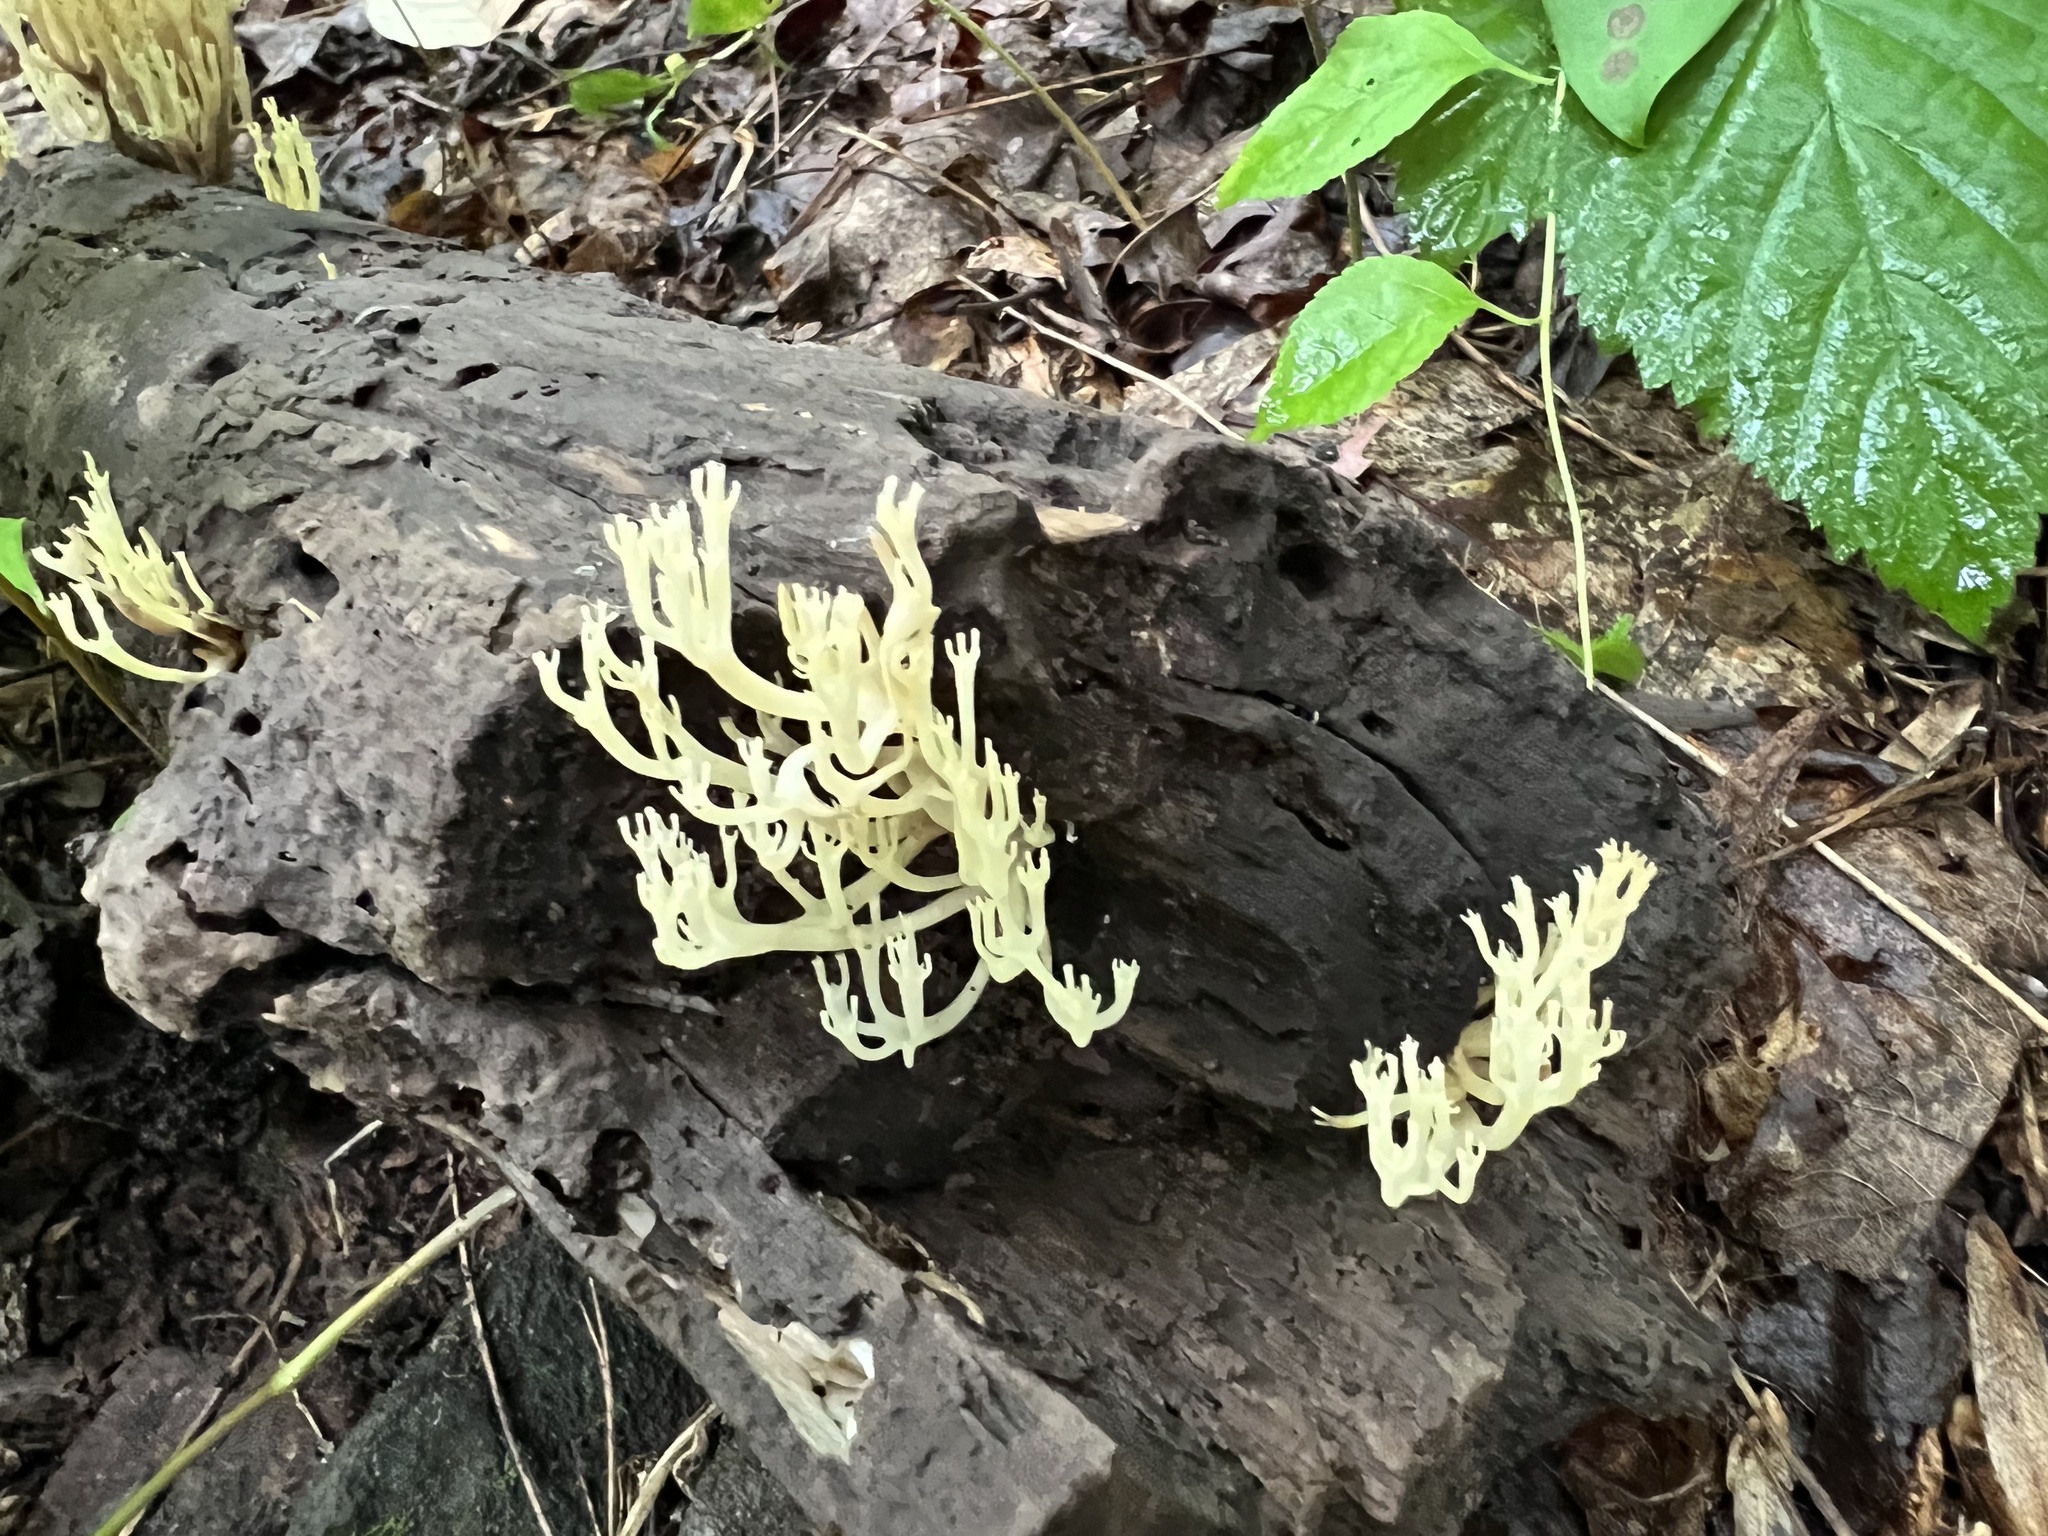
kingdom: Fungi
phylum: Basidiomycota
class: Agaricomycetes
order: Russulales
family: Auriscalpiaceae
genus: Artomyces
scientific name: Artomyces pyxidatus
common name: Crown-tipped coral fungus
